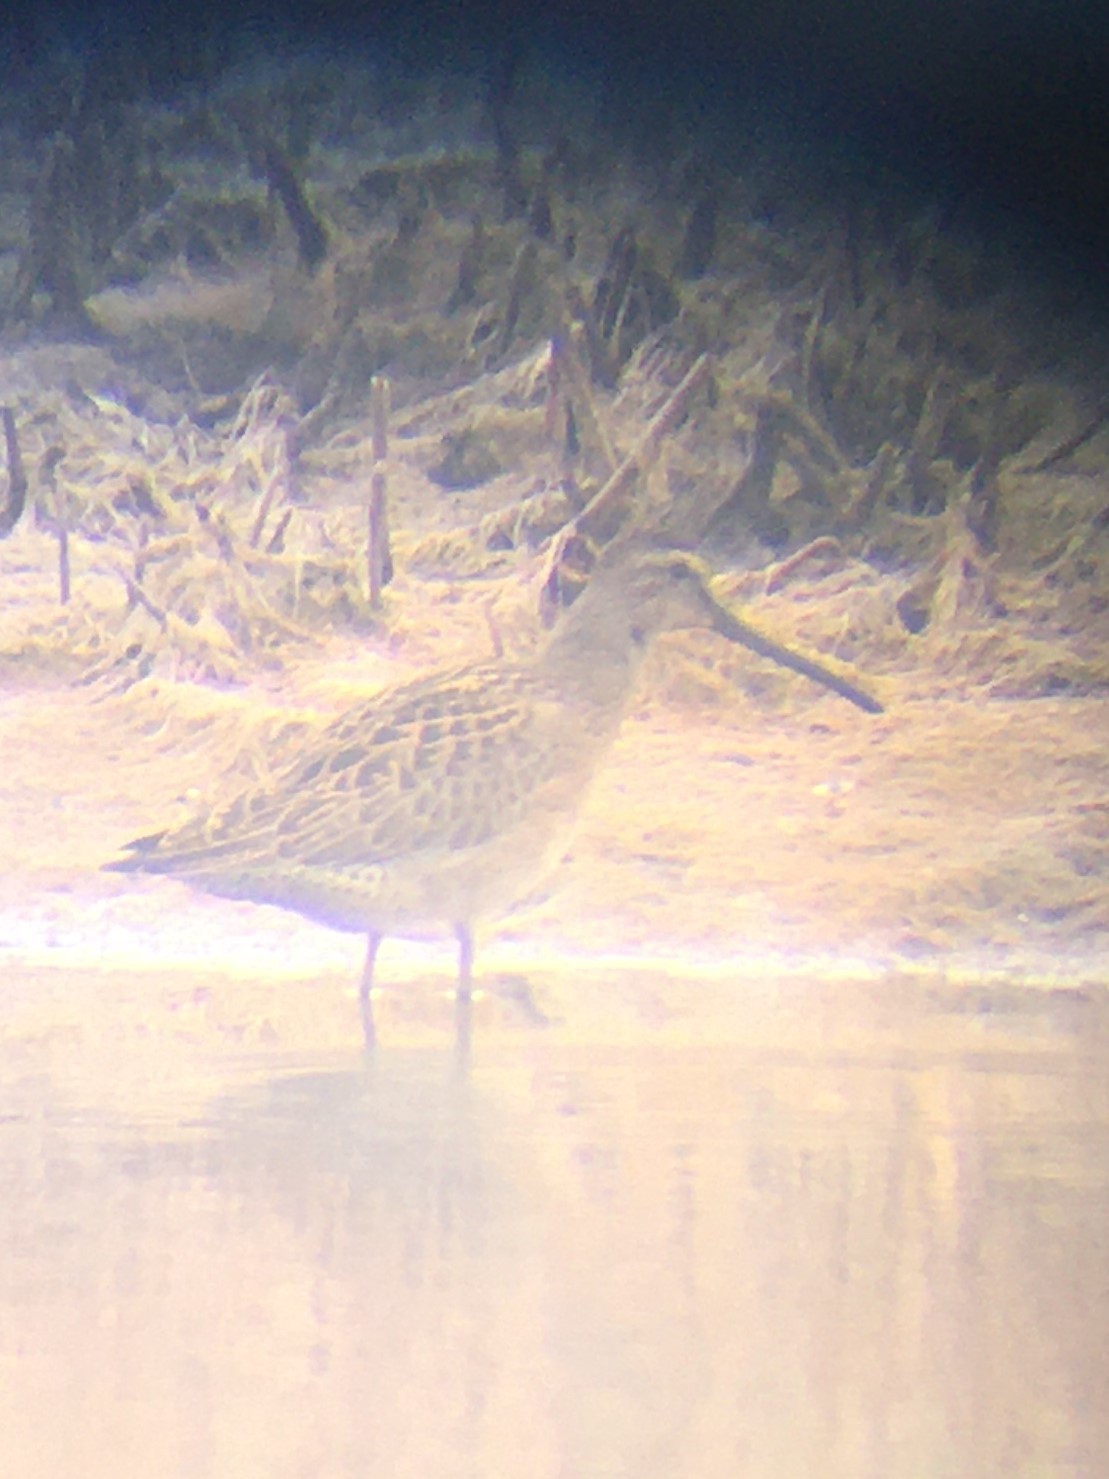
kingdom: Animalia
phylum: Chordata
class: Aves
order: Charadriiformes
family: Scolopacidae
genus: Limnodromus
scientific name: Limnodromus griseus
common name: Short-billed dowitcher
